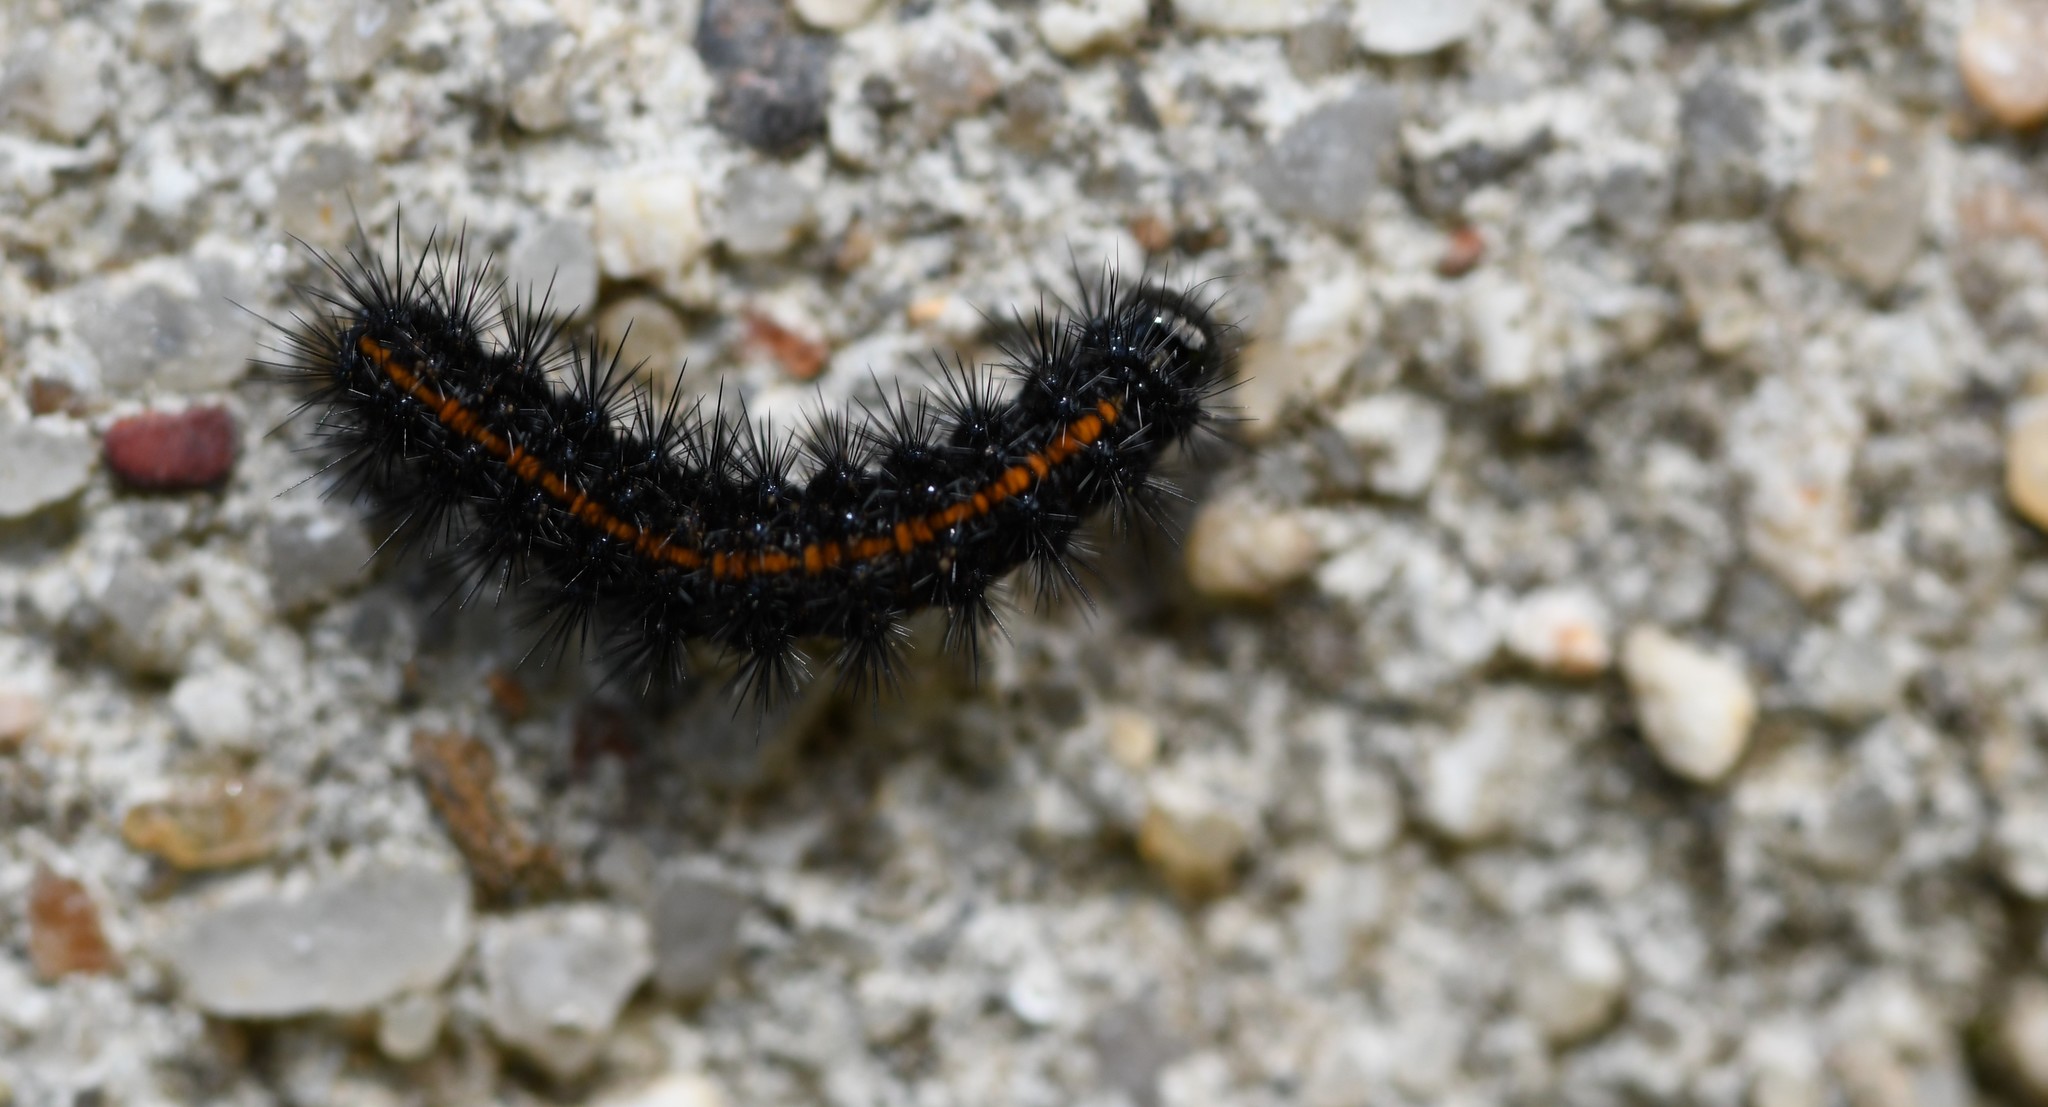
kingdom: Animalia
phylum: Arthropoda
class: Insecta
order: Lepidoptera
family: Erebidae
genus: Coscinia
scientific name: Coscinia Spiris striata
